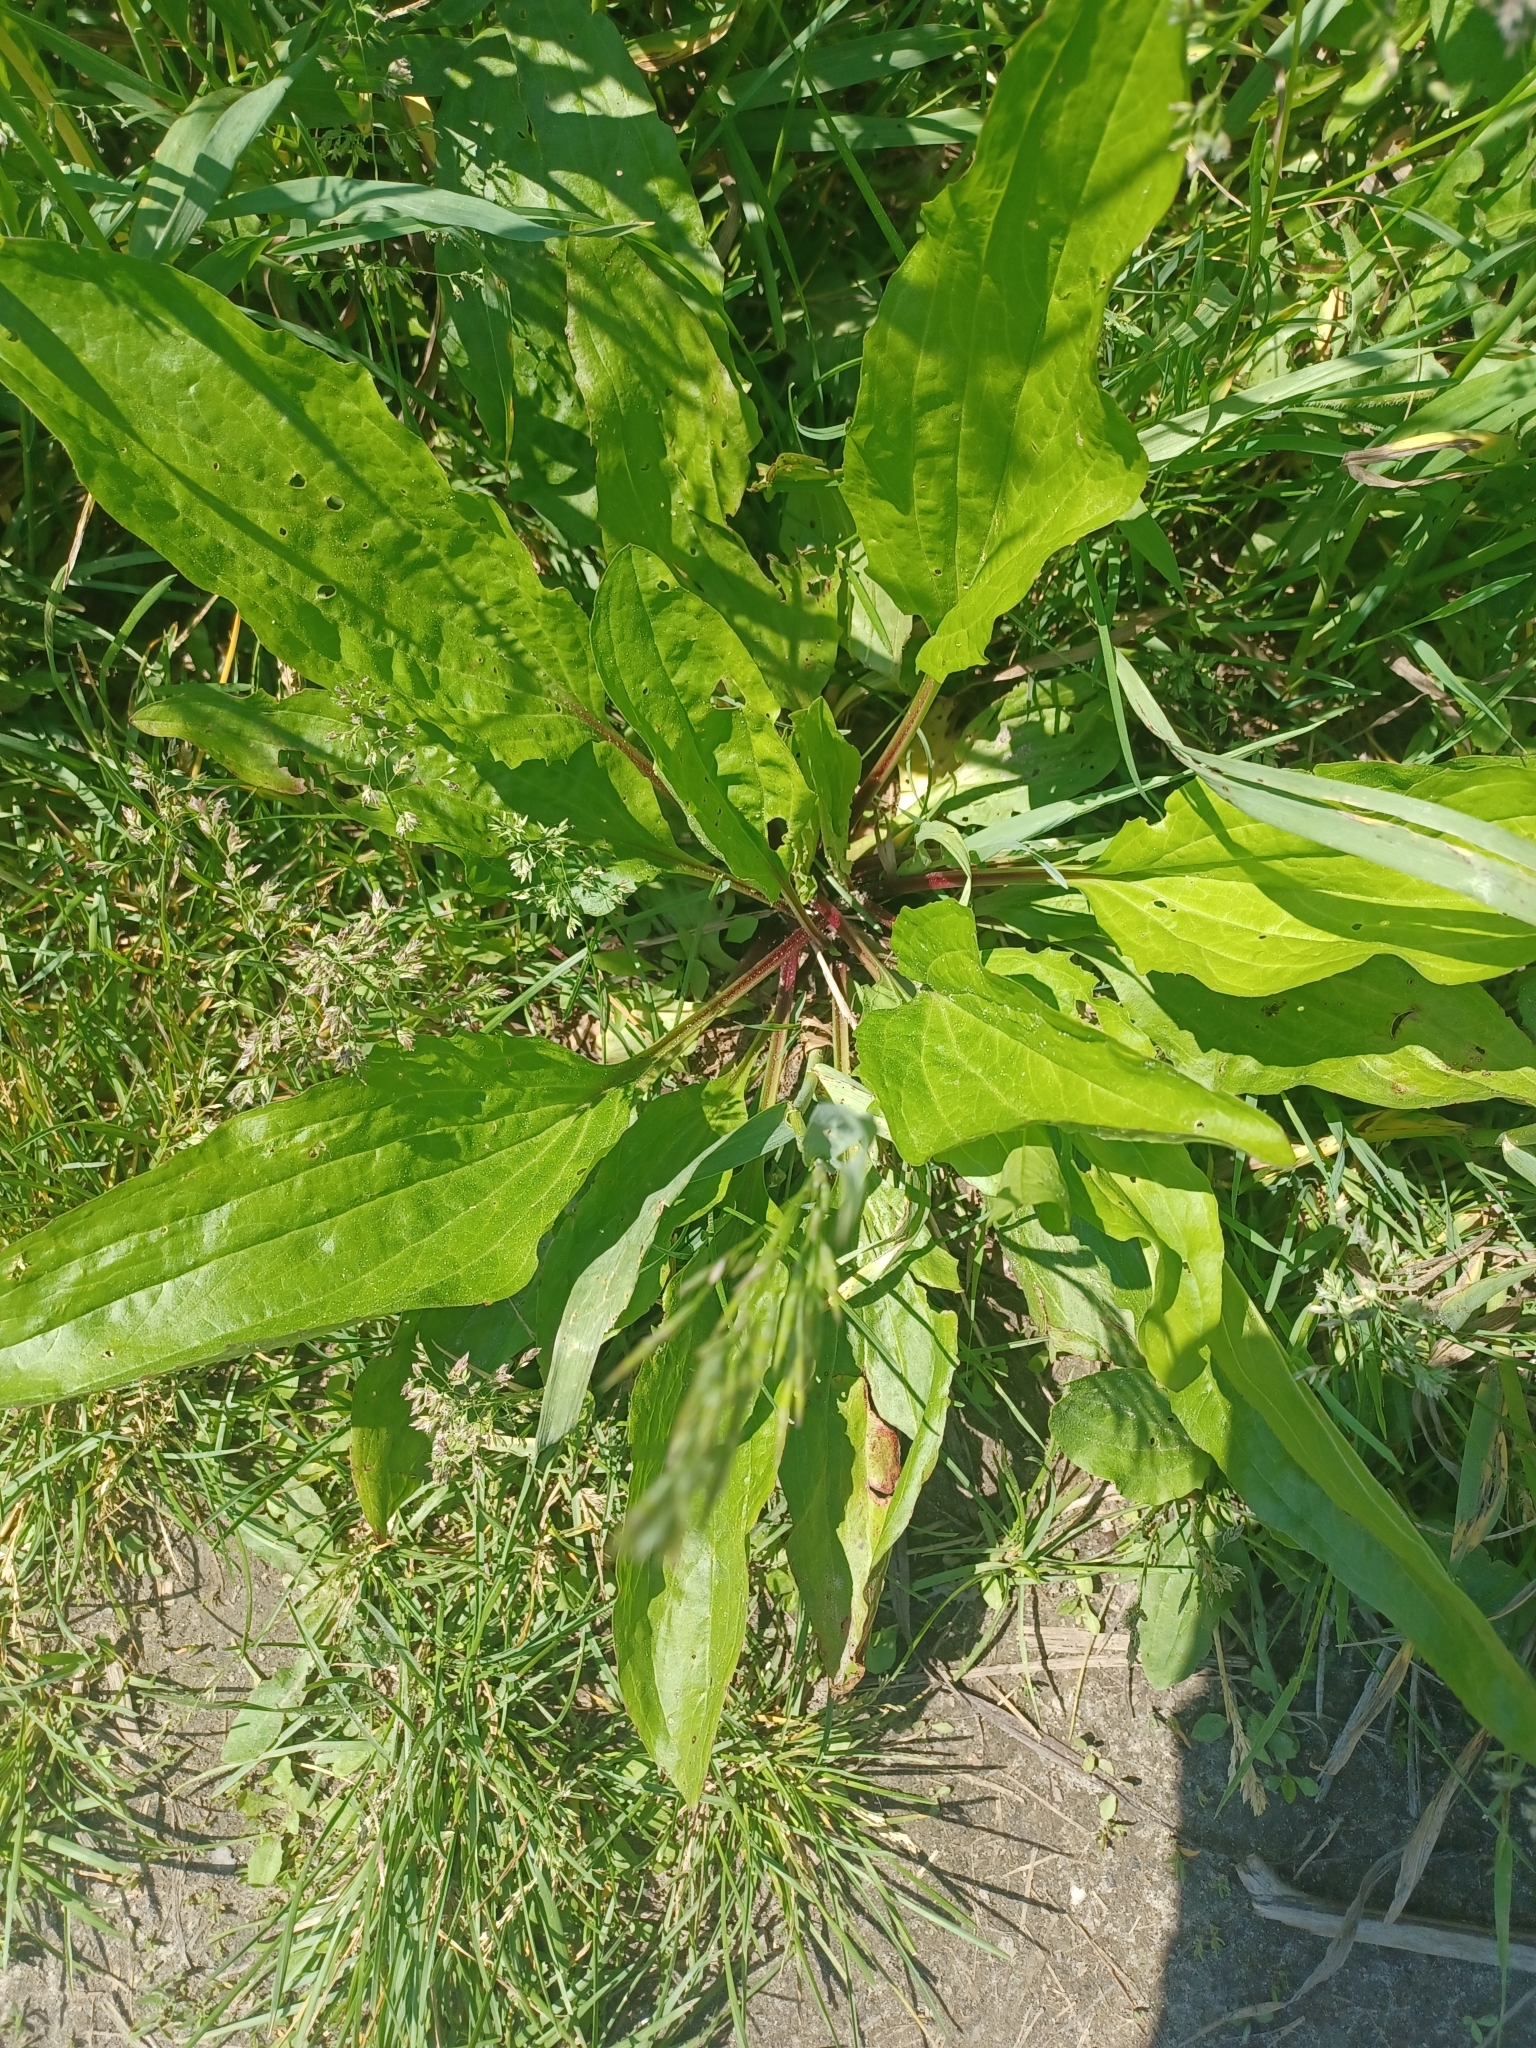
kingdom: Plantae
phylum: Tracheophyta
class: Magnoliopsida
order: Lamiales
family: Plantaginaceae
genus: Plantago
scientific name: Plantago rugelii
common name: American plantain
